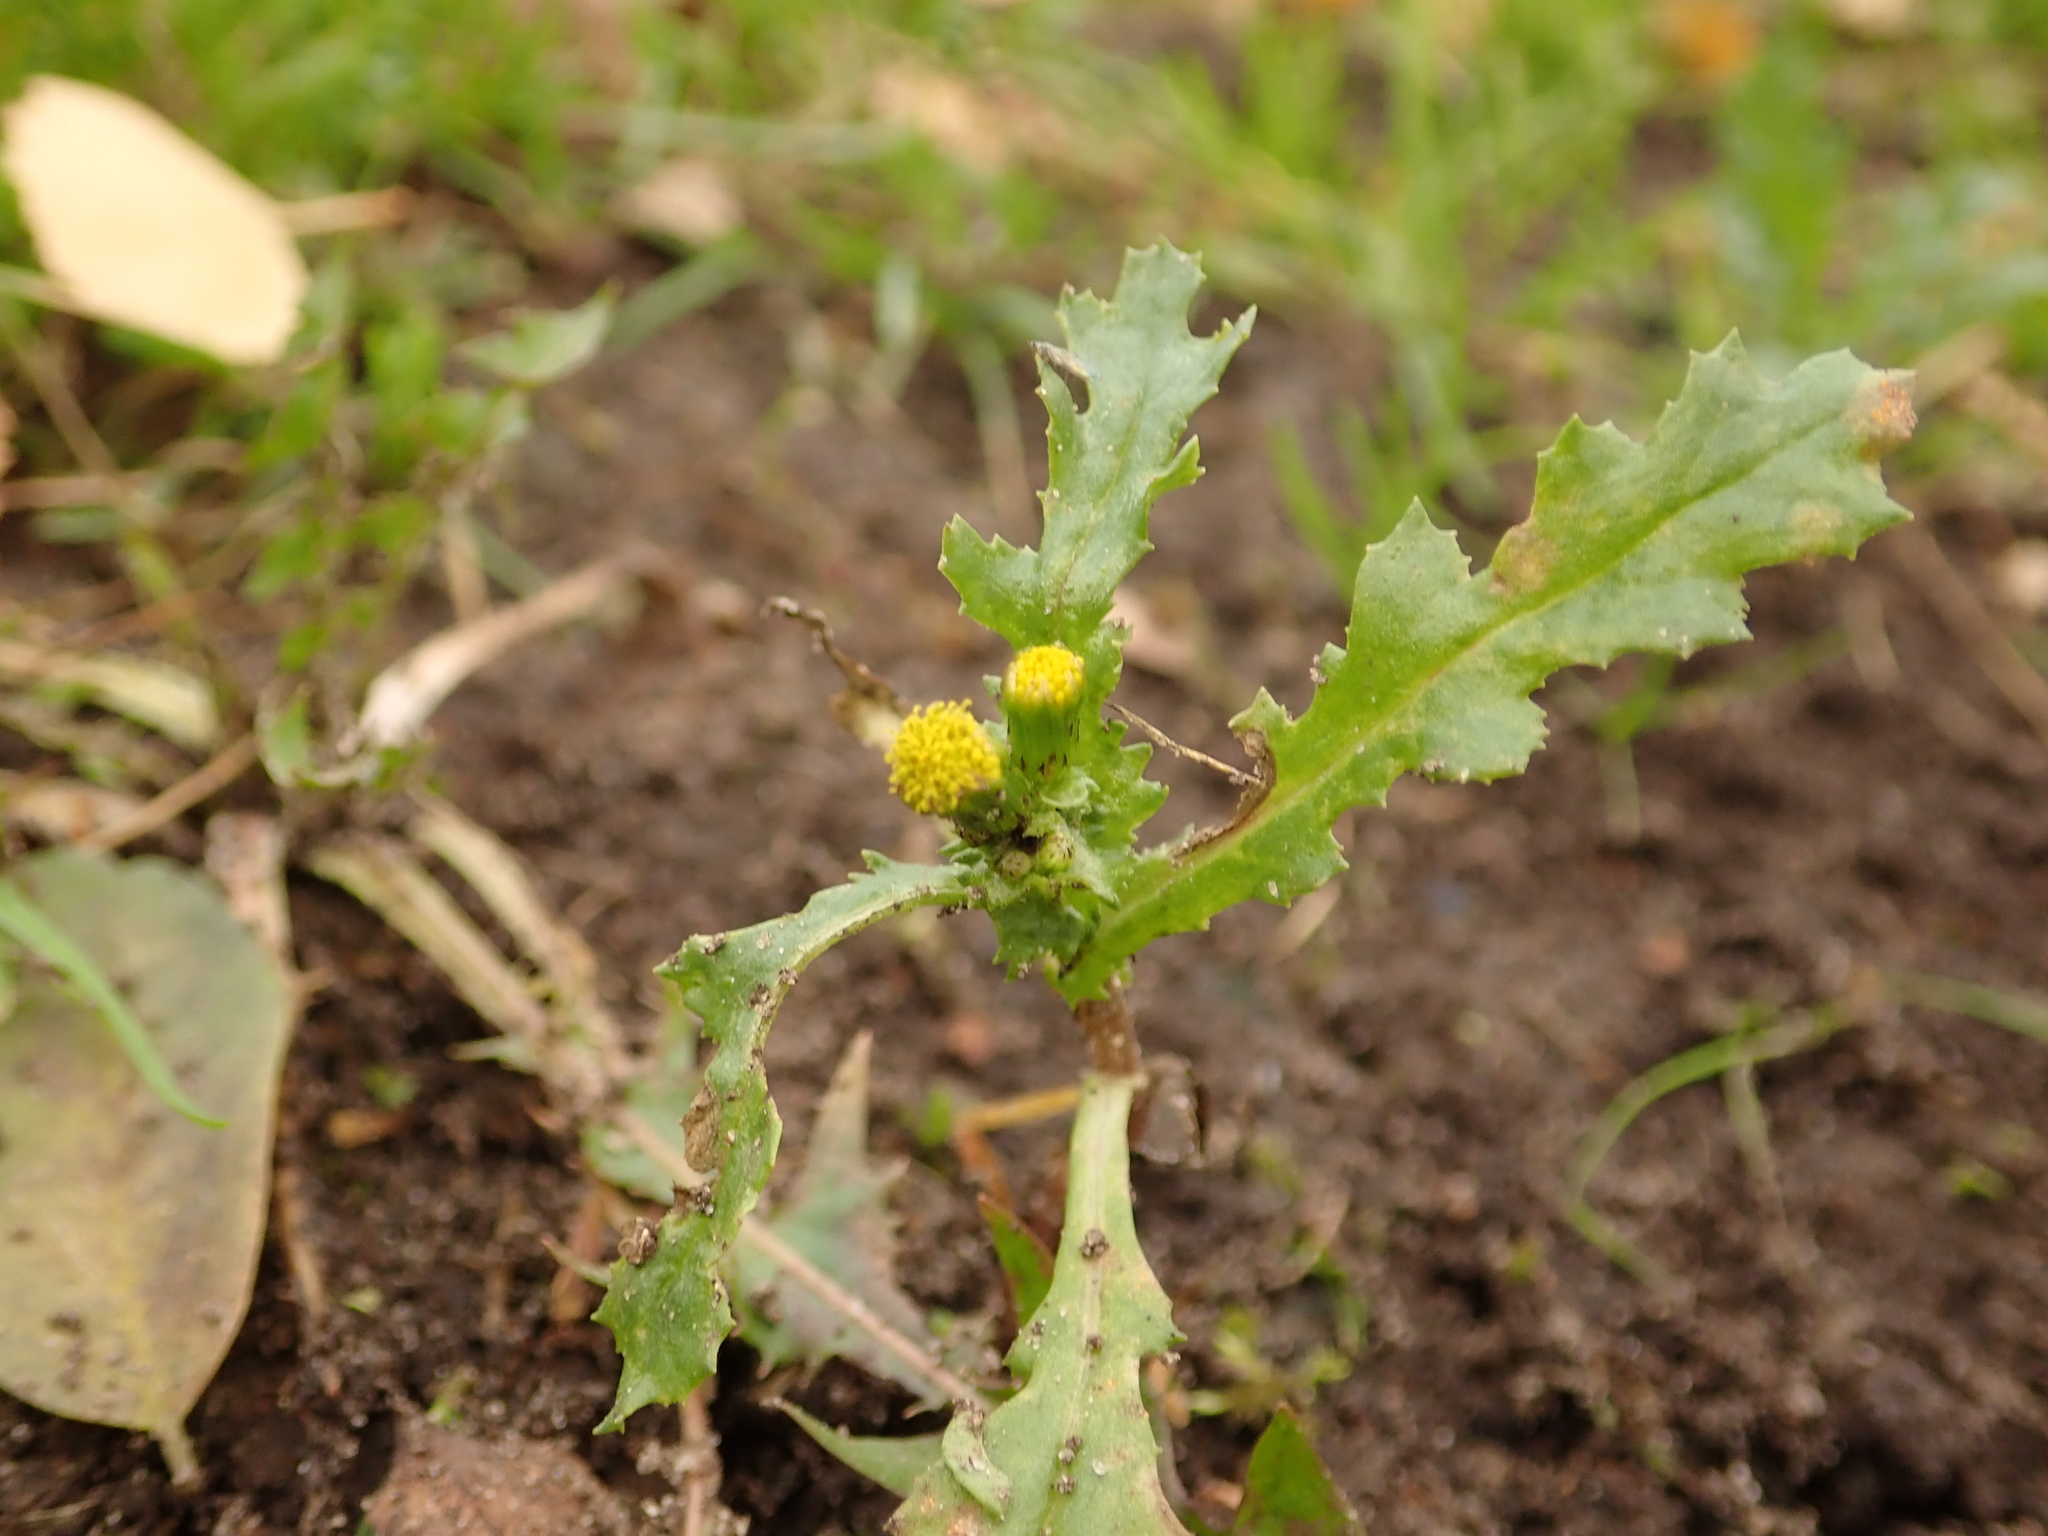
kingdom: Plantae
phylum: Tracheophyta
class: Magnoliopsida
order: Asterales
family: Asteraceae
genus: Senecio
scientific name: Senecio vulgaris
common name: Old-man-in-the-spring
